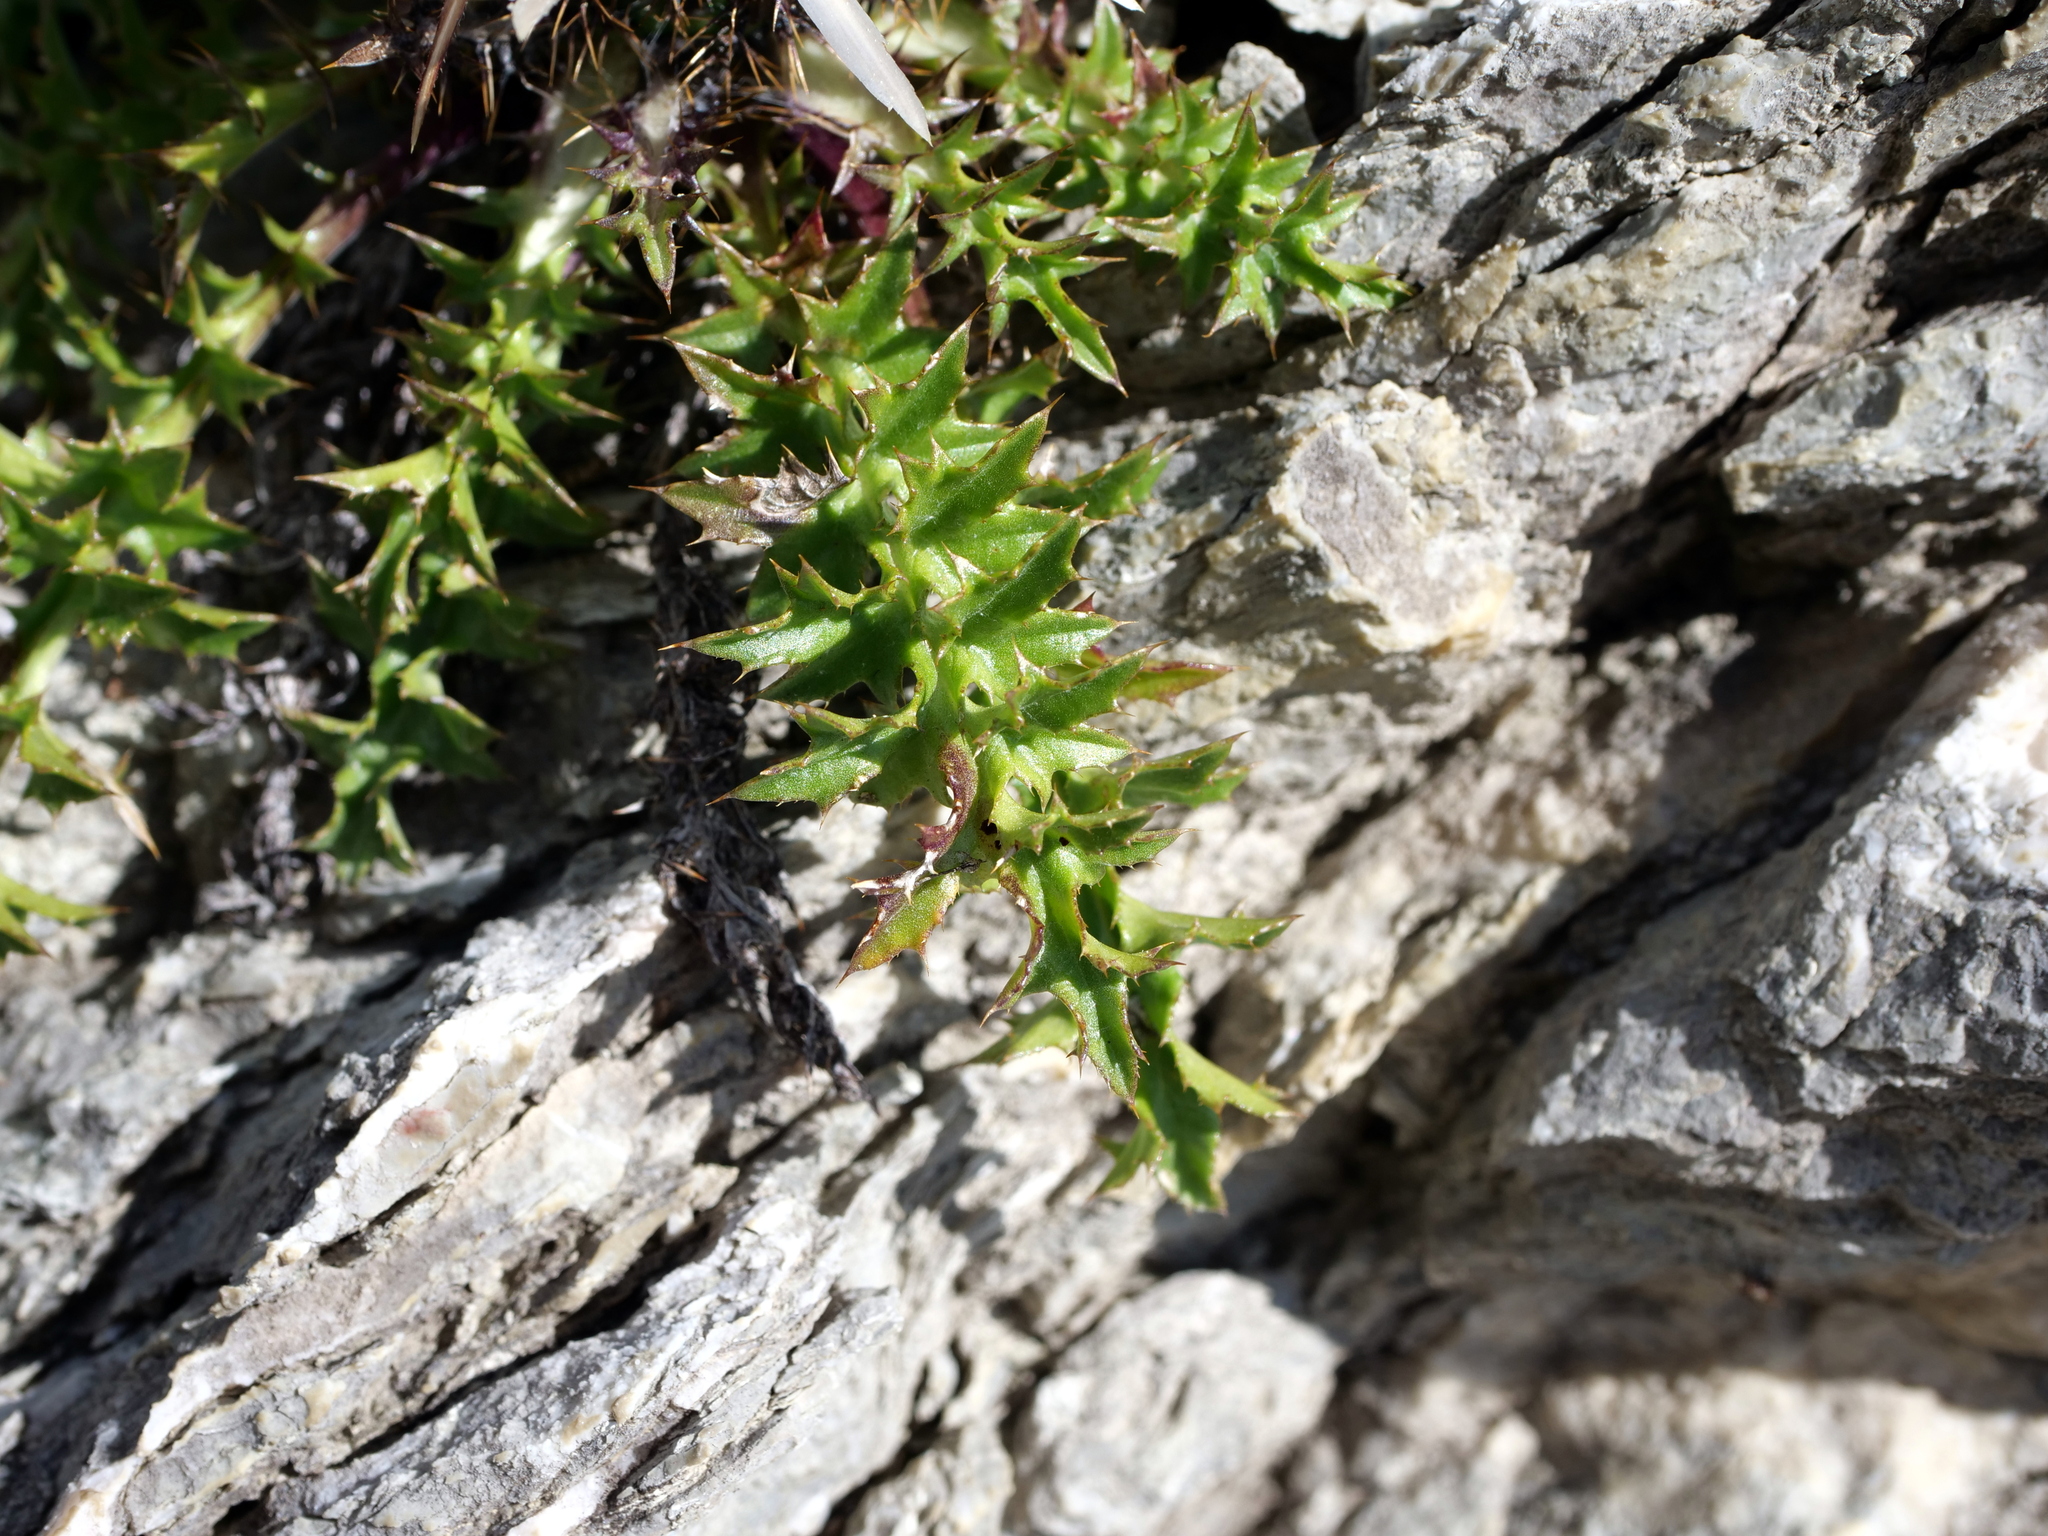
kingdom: Plantae
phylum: Tracheophyta
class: Magnoliopsida
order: Asterales
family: Asteraceae
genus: Carlina
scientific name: Carlina acaulis
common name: Stemless carline thistle
